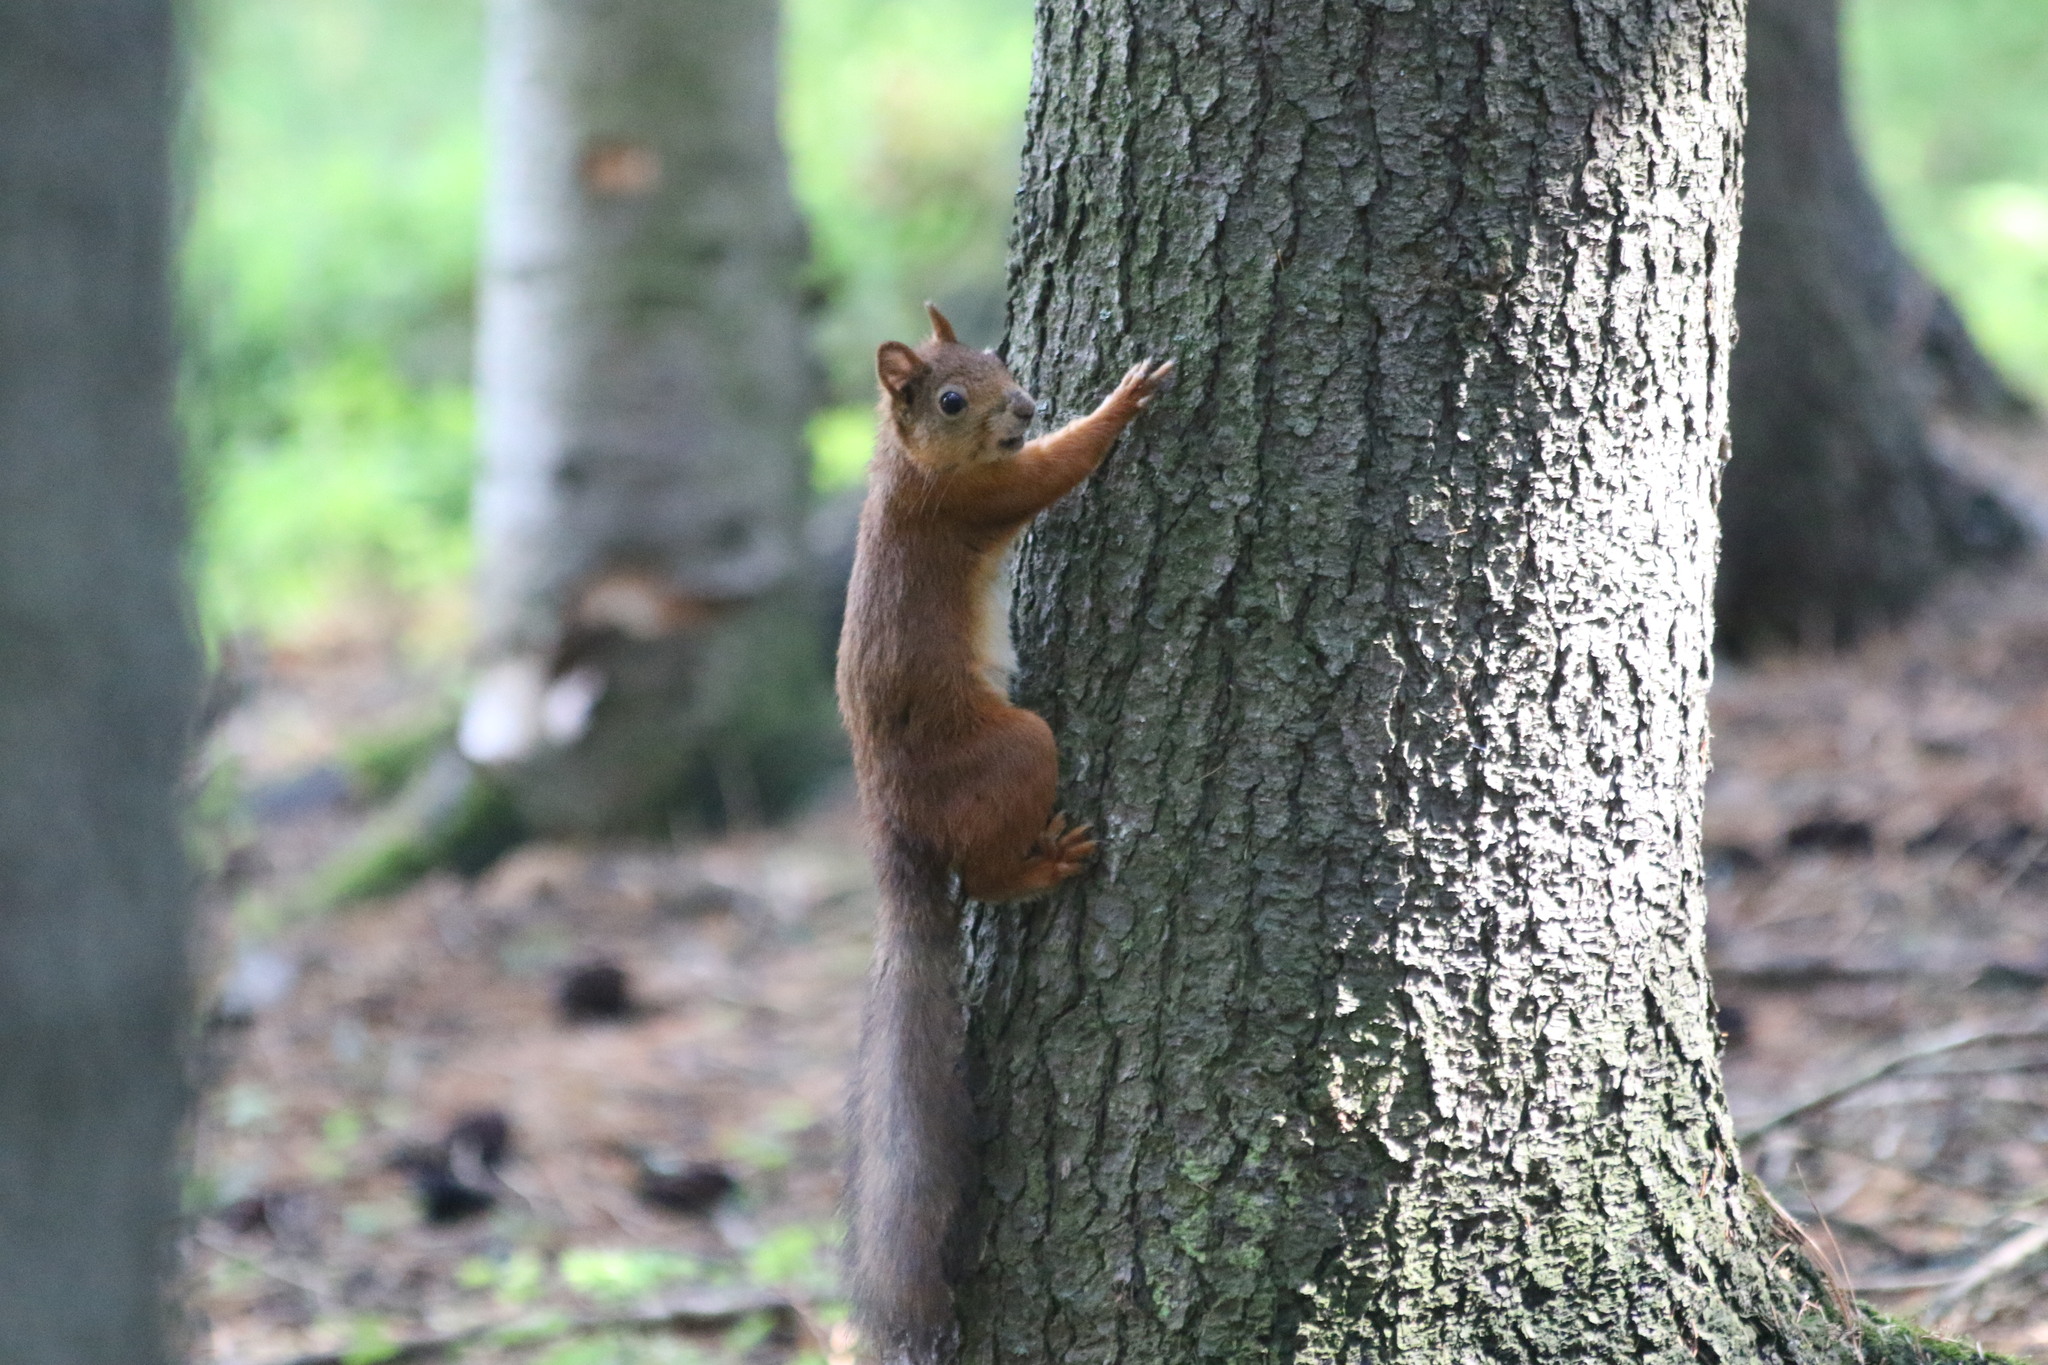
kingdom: Animalia
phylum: Chordata
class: Mammalia
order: Rodentia
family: Sciuridae
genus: Sciurus
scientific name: Sciurus vulgaris
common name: Eurasian red squirrel
